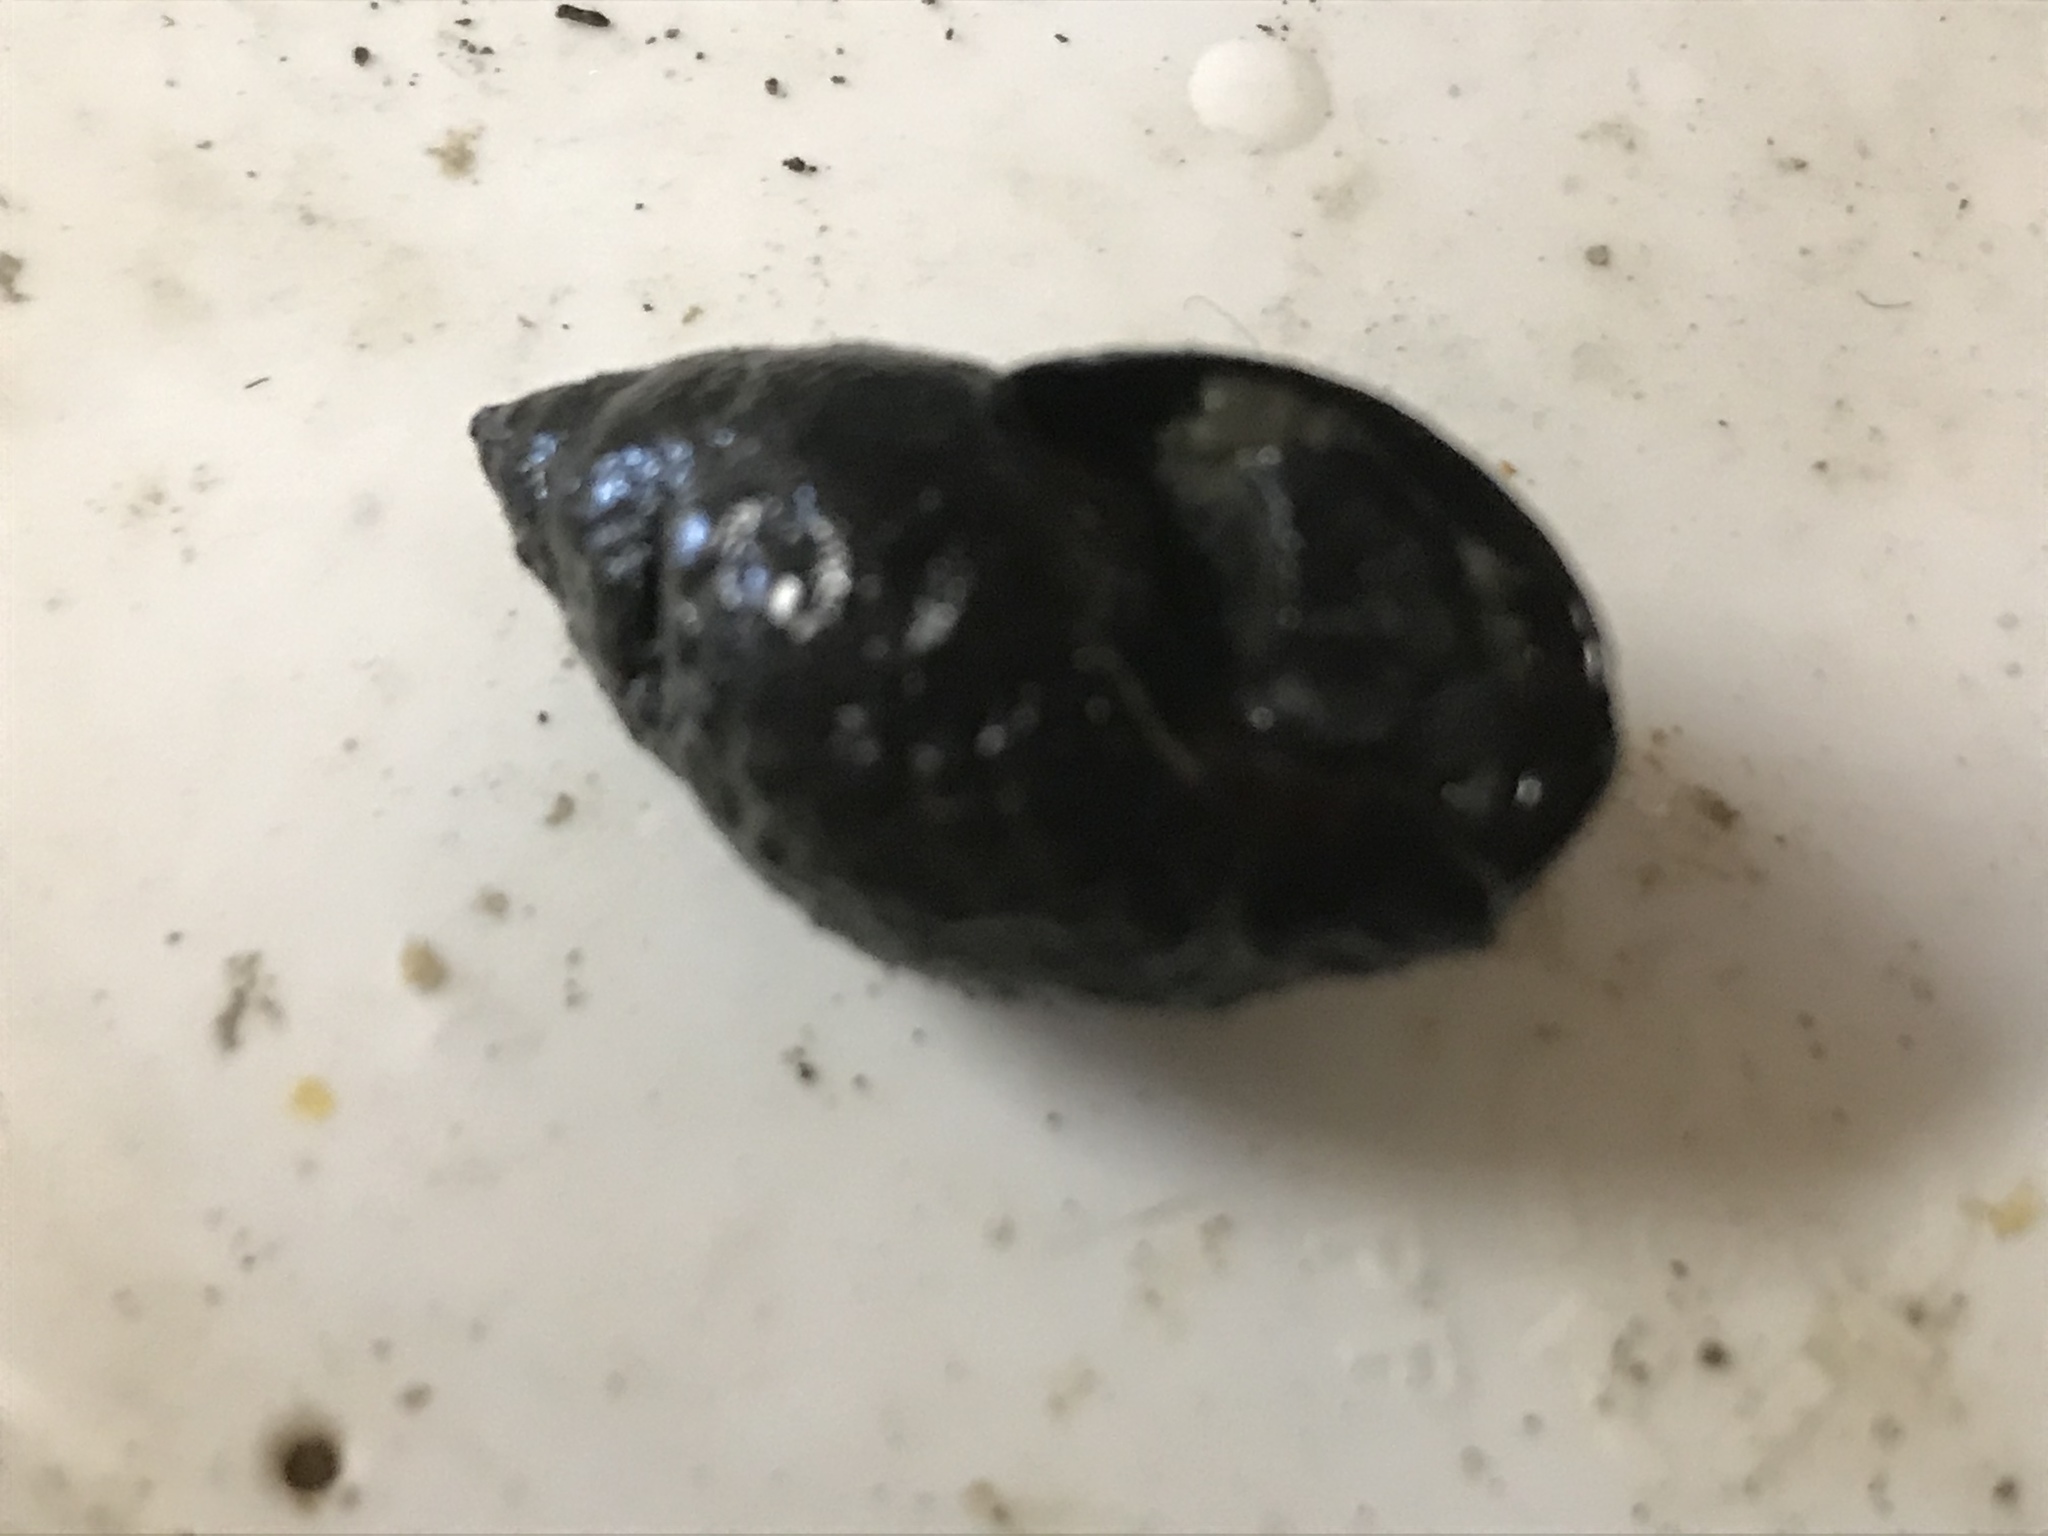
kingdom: Animalia
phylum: Mollusca
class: Gastropoda
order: Neogastropoda
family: Nassariidae
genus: Ilyanassa
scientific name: Ilyanassa obsoleta
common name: Eastern mudsnail
